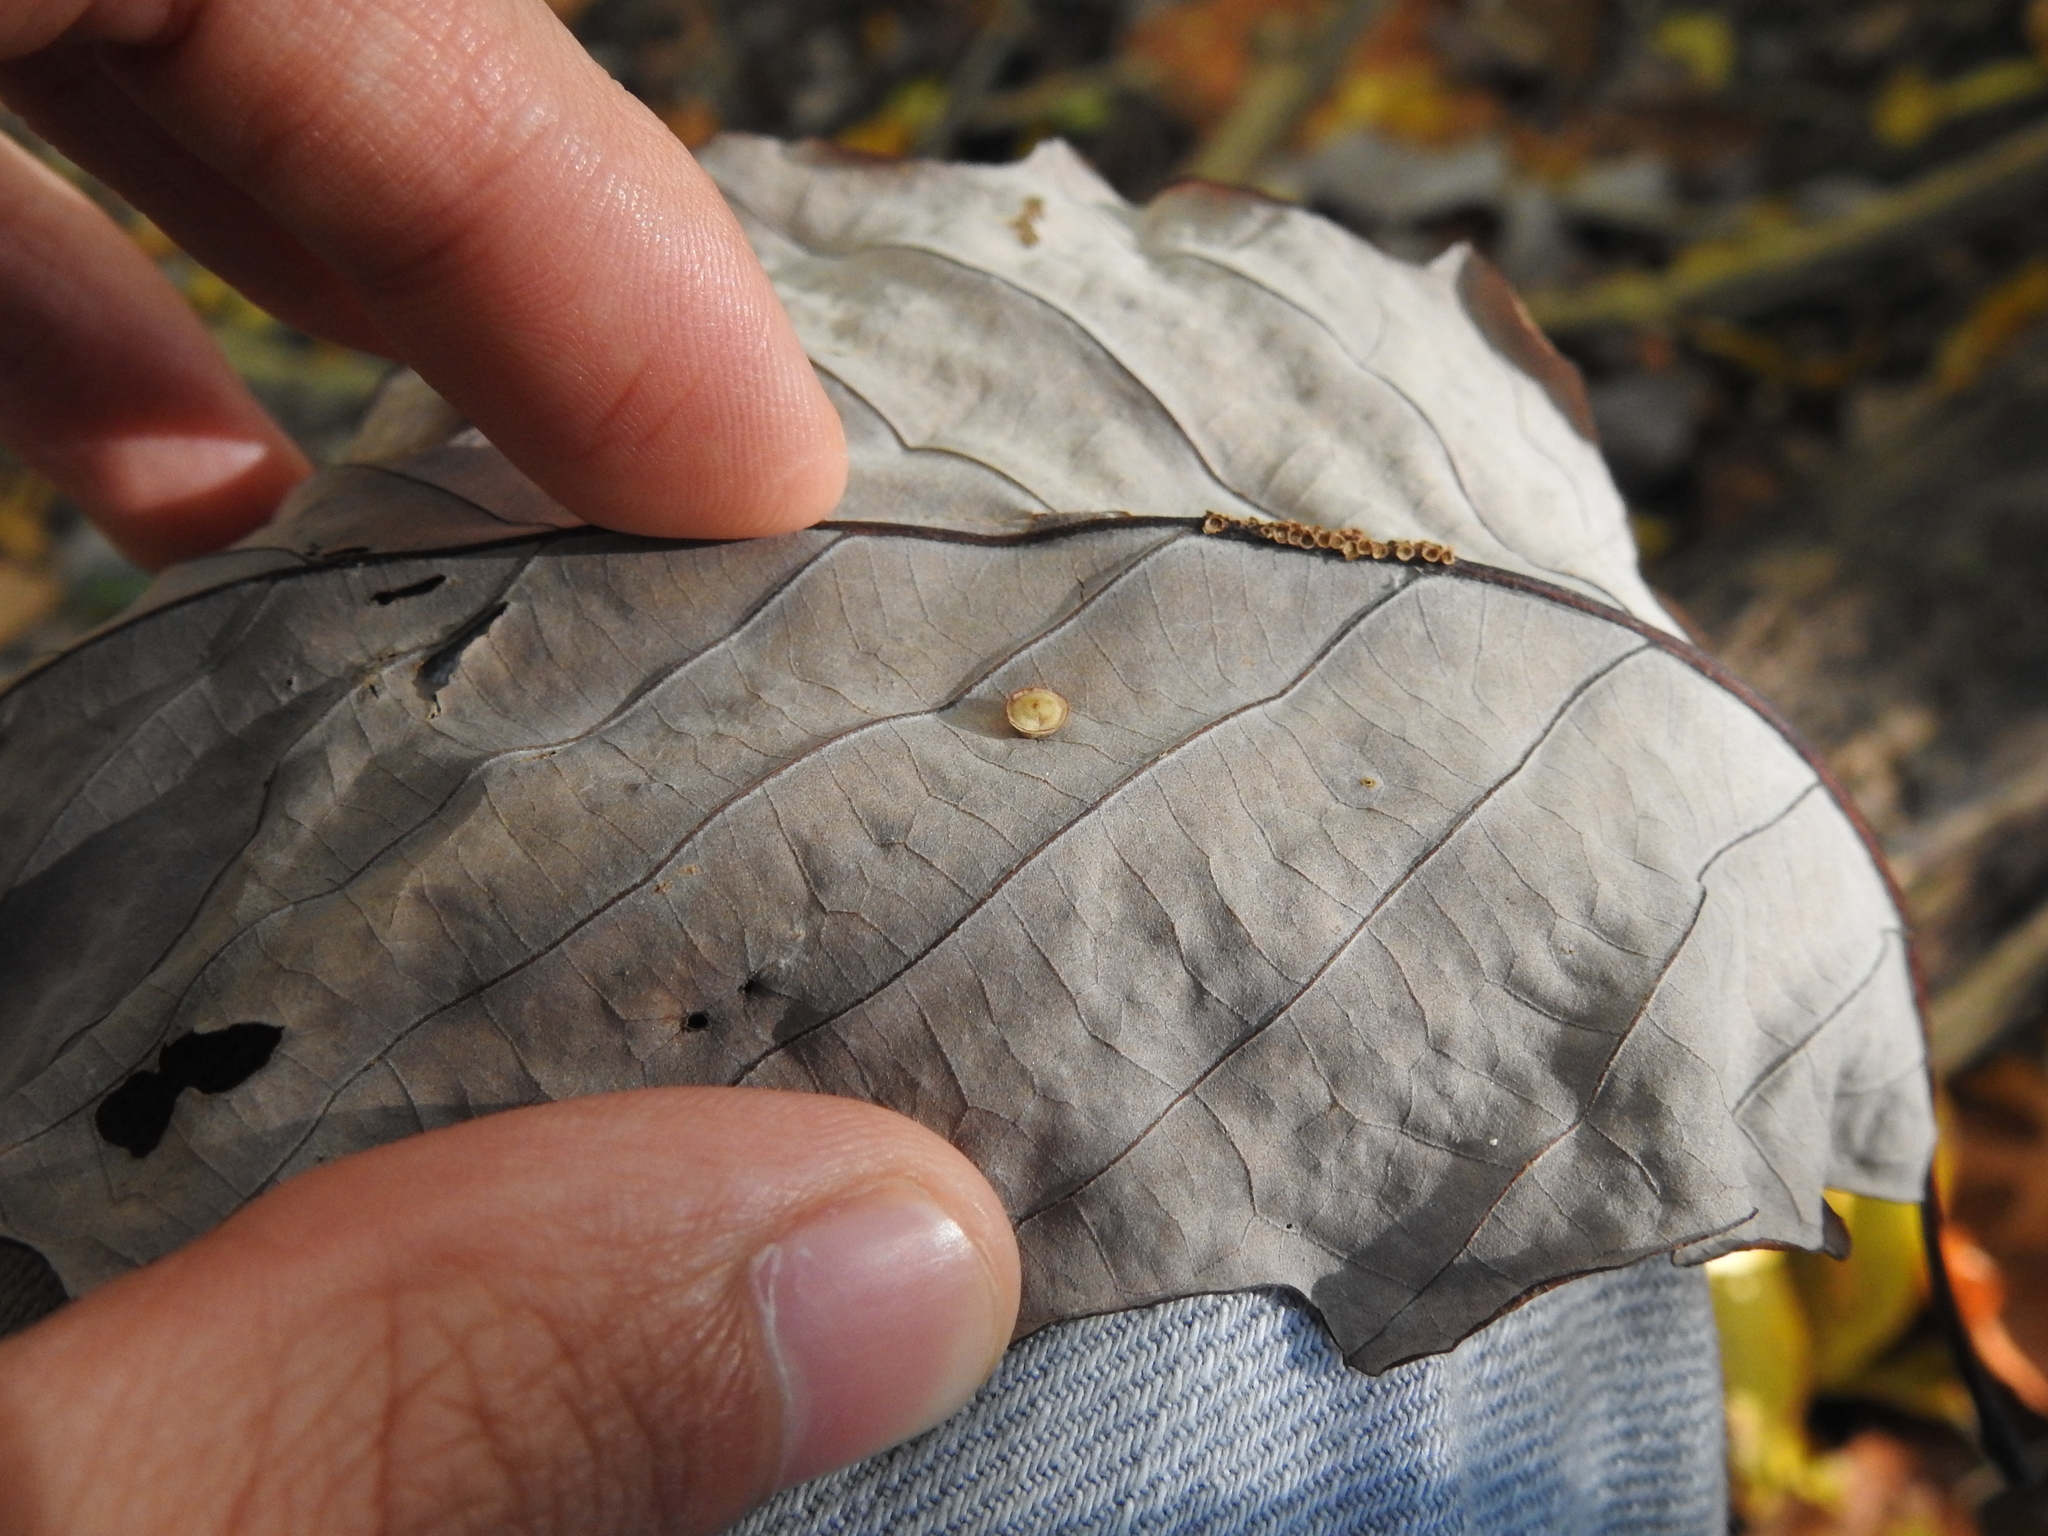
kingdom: Animalia
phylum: Arthropoda
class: Insecta
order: Hymenoptera
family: Cynipidae
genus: Phylloteras
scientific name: Phylloteras
